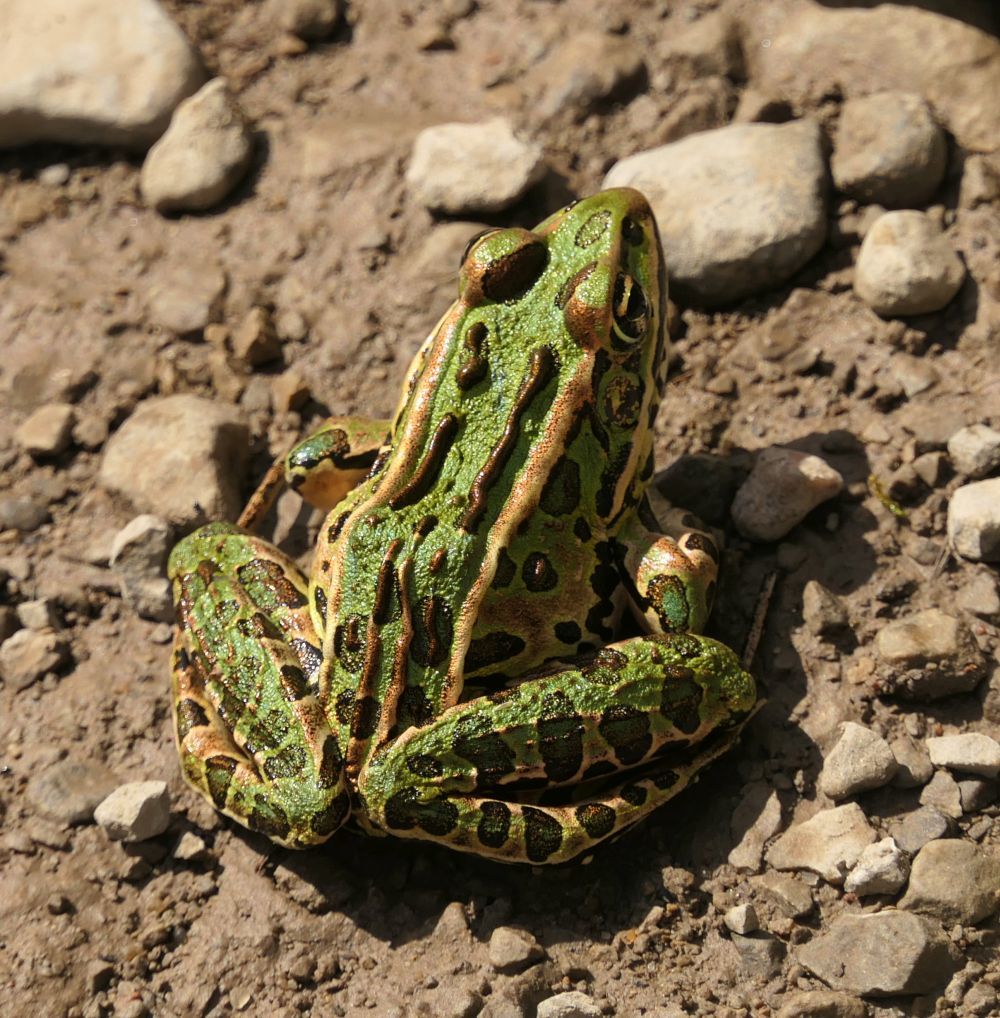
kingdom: Animalia
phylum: Chordata
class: Amphibia
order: Anura
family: Ranidae
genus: Lithobates
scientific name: Lithobates pipiens
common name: Northern leopard frog
